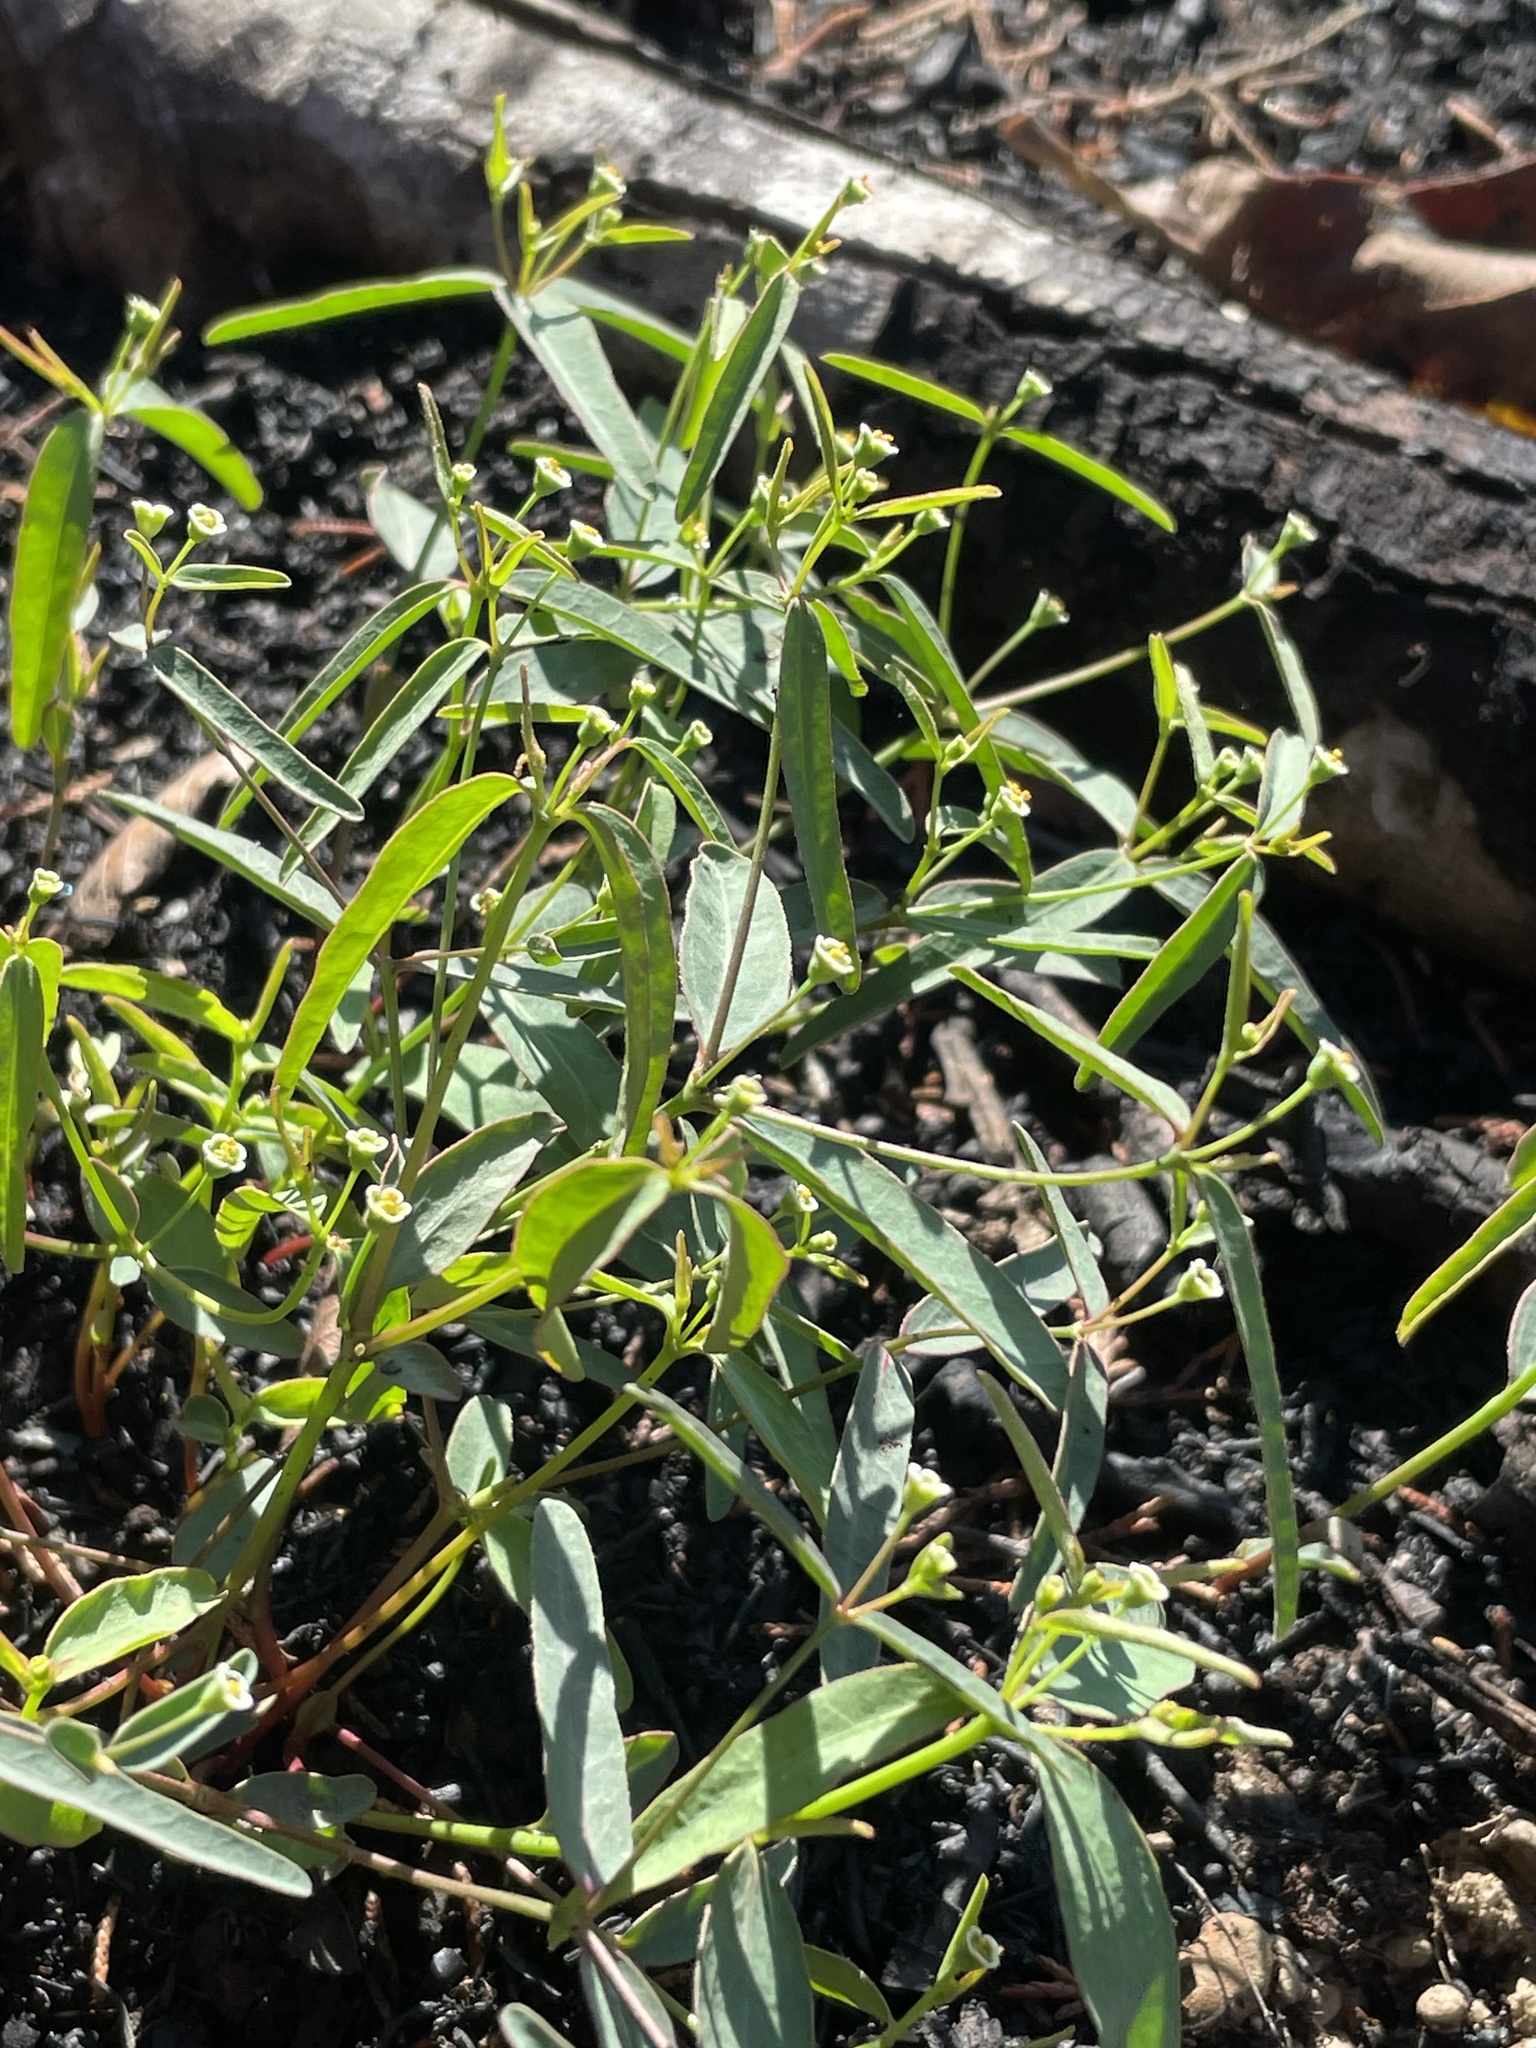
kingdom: Plantae
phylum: Tracheophyta
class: Magnoliopsida
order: Malpighiales
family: Euphorbiaceae
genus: Euphorbia
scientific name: Euphorbia curtisii
